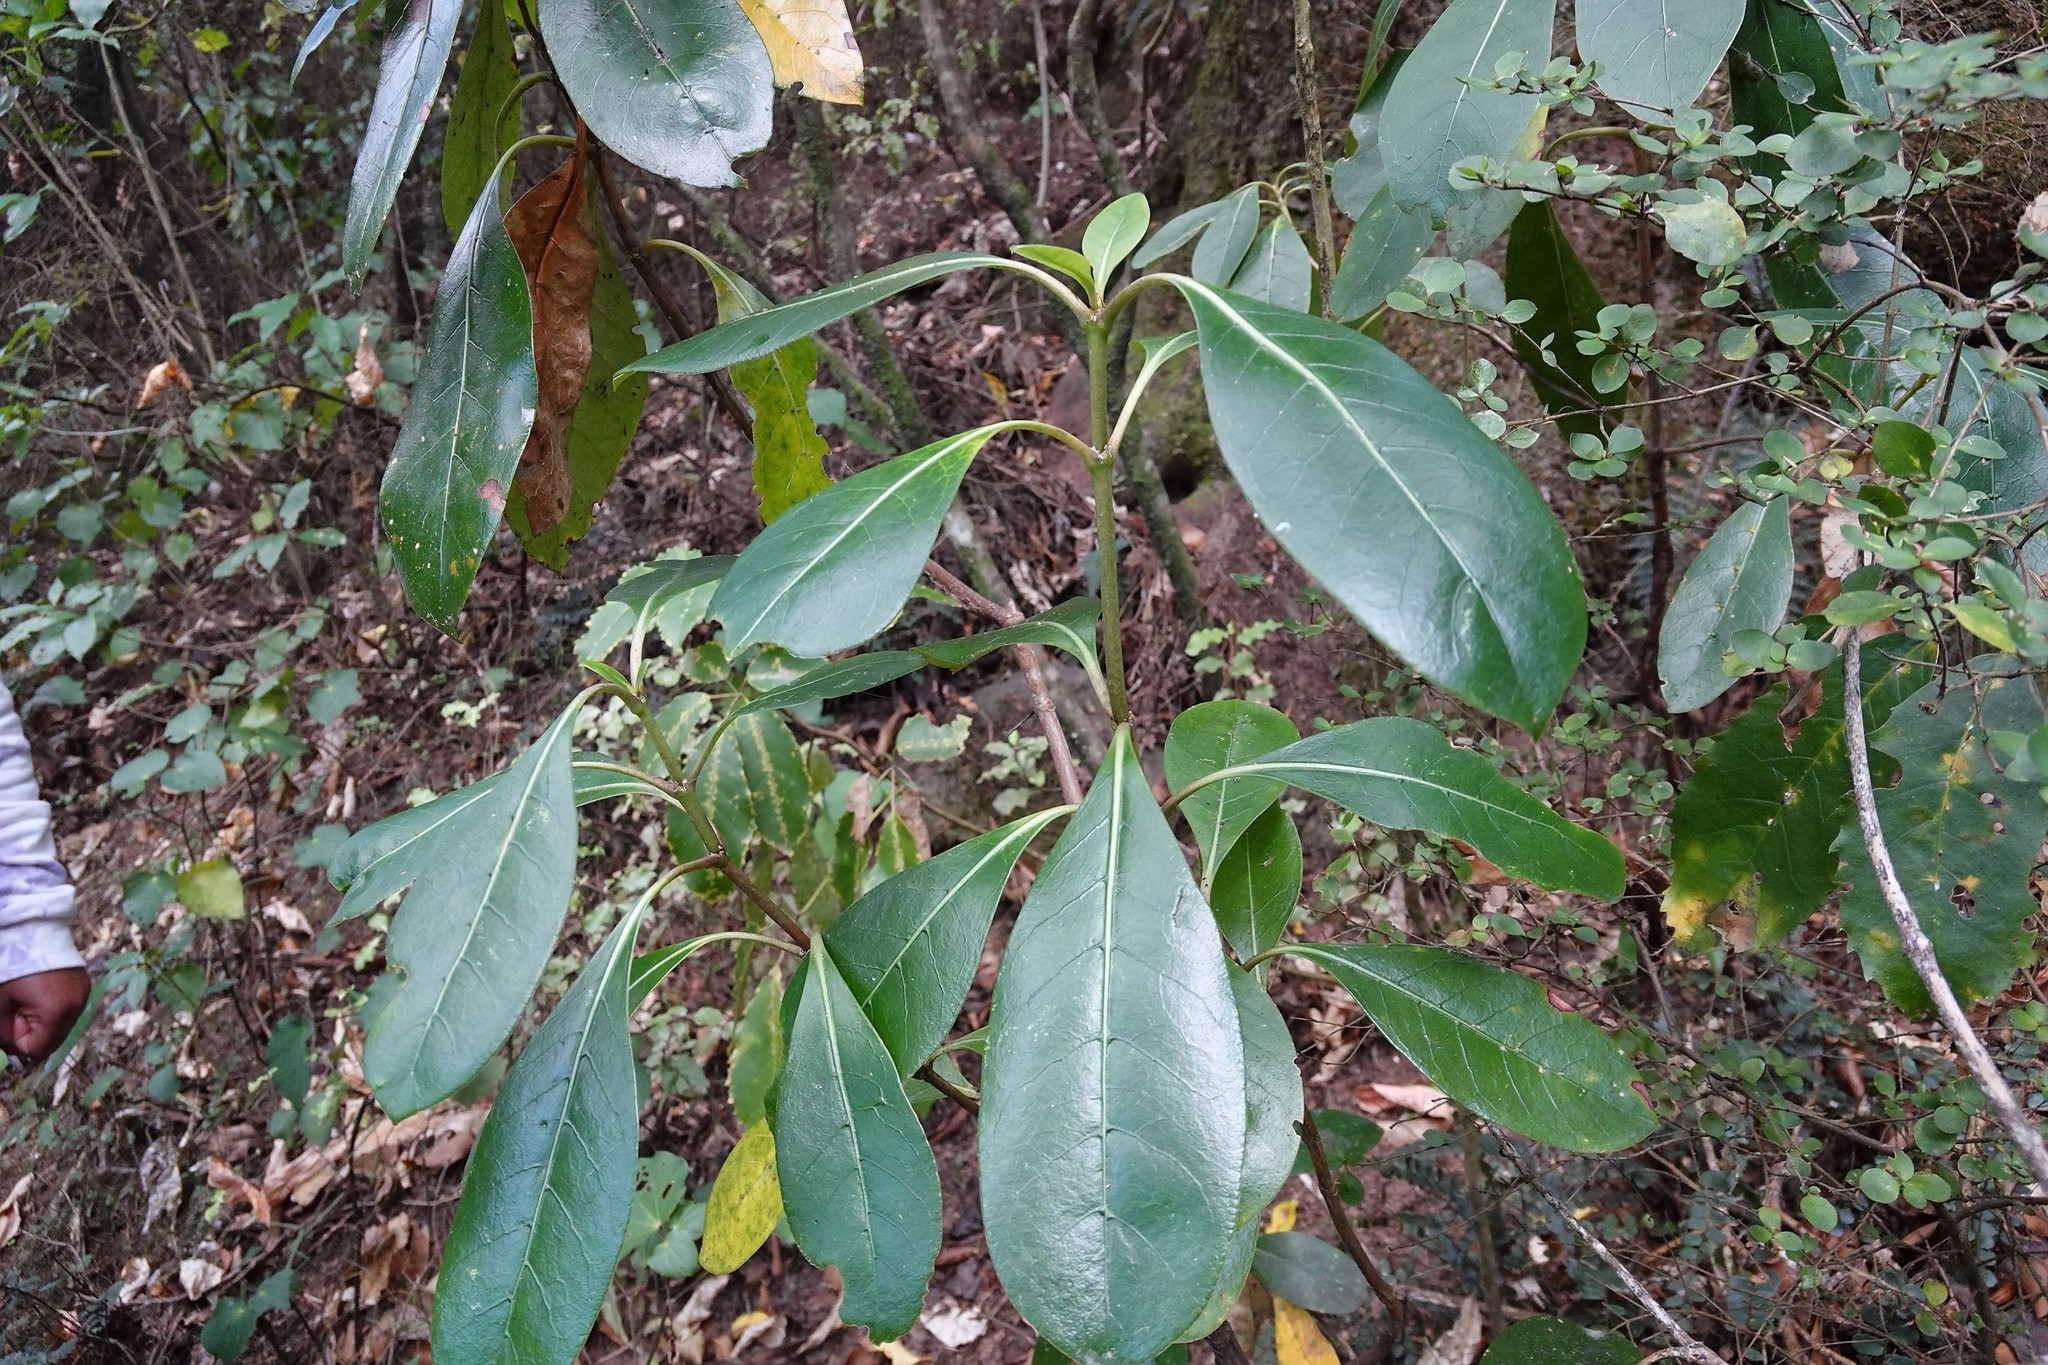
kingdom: Plantae
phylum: Tracheophyta
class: Magnoliopsida
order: Gentianales
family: Rubiaceae
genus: Coprosma
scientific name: Coprosma lucida
